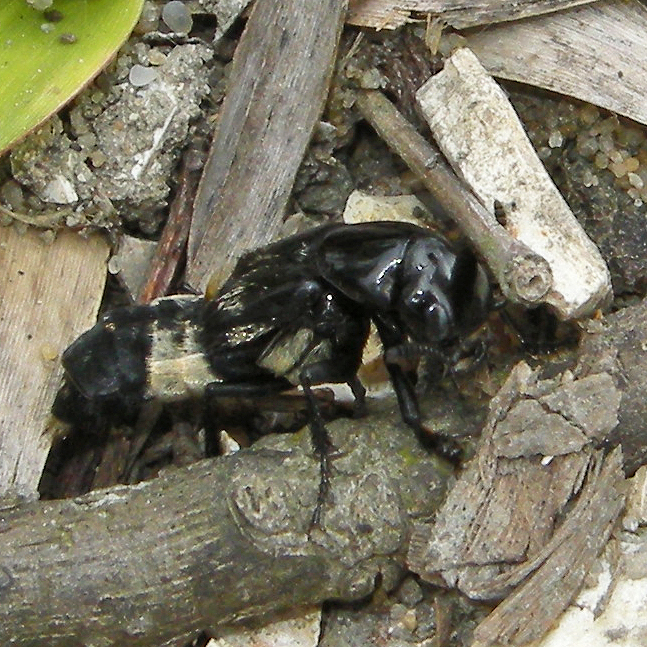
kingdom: Animalia
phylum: Arthropoda
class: Insecta
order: Coleoptera
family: Staphylinidae
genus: Creophilus
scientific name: Creophilus maxillosus
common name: Hairy rove beetle
